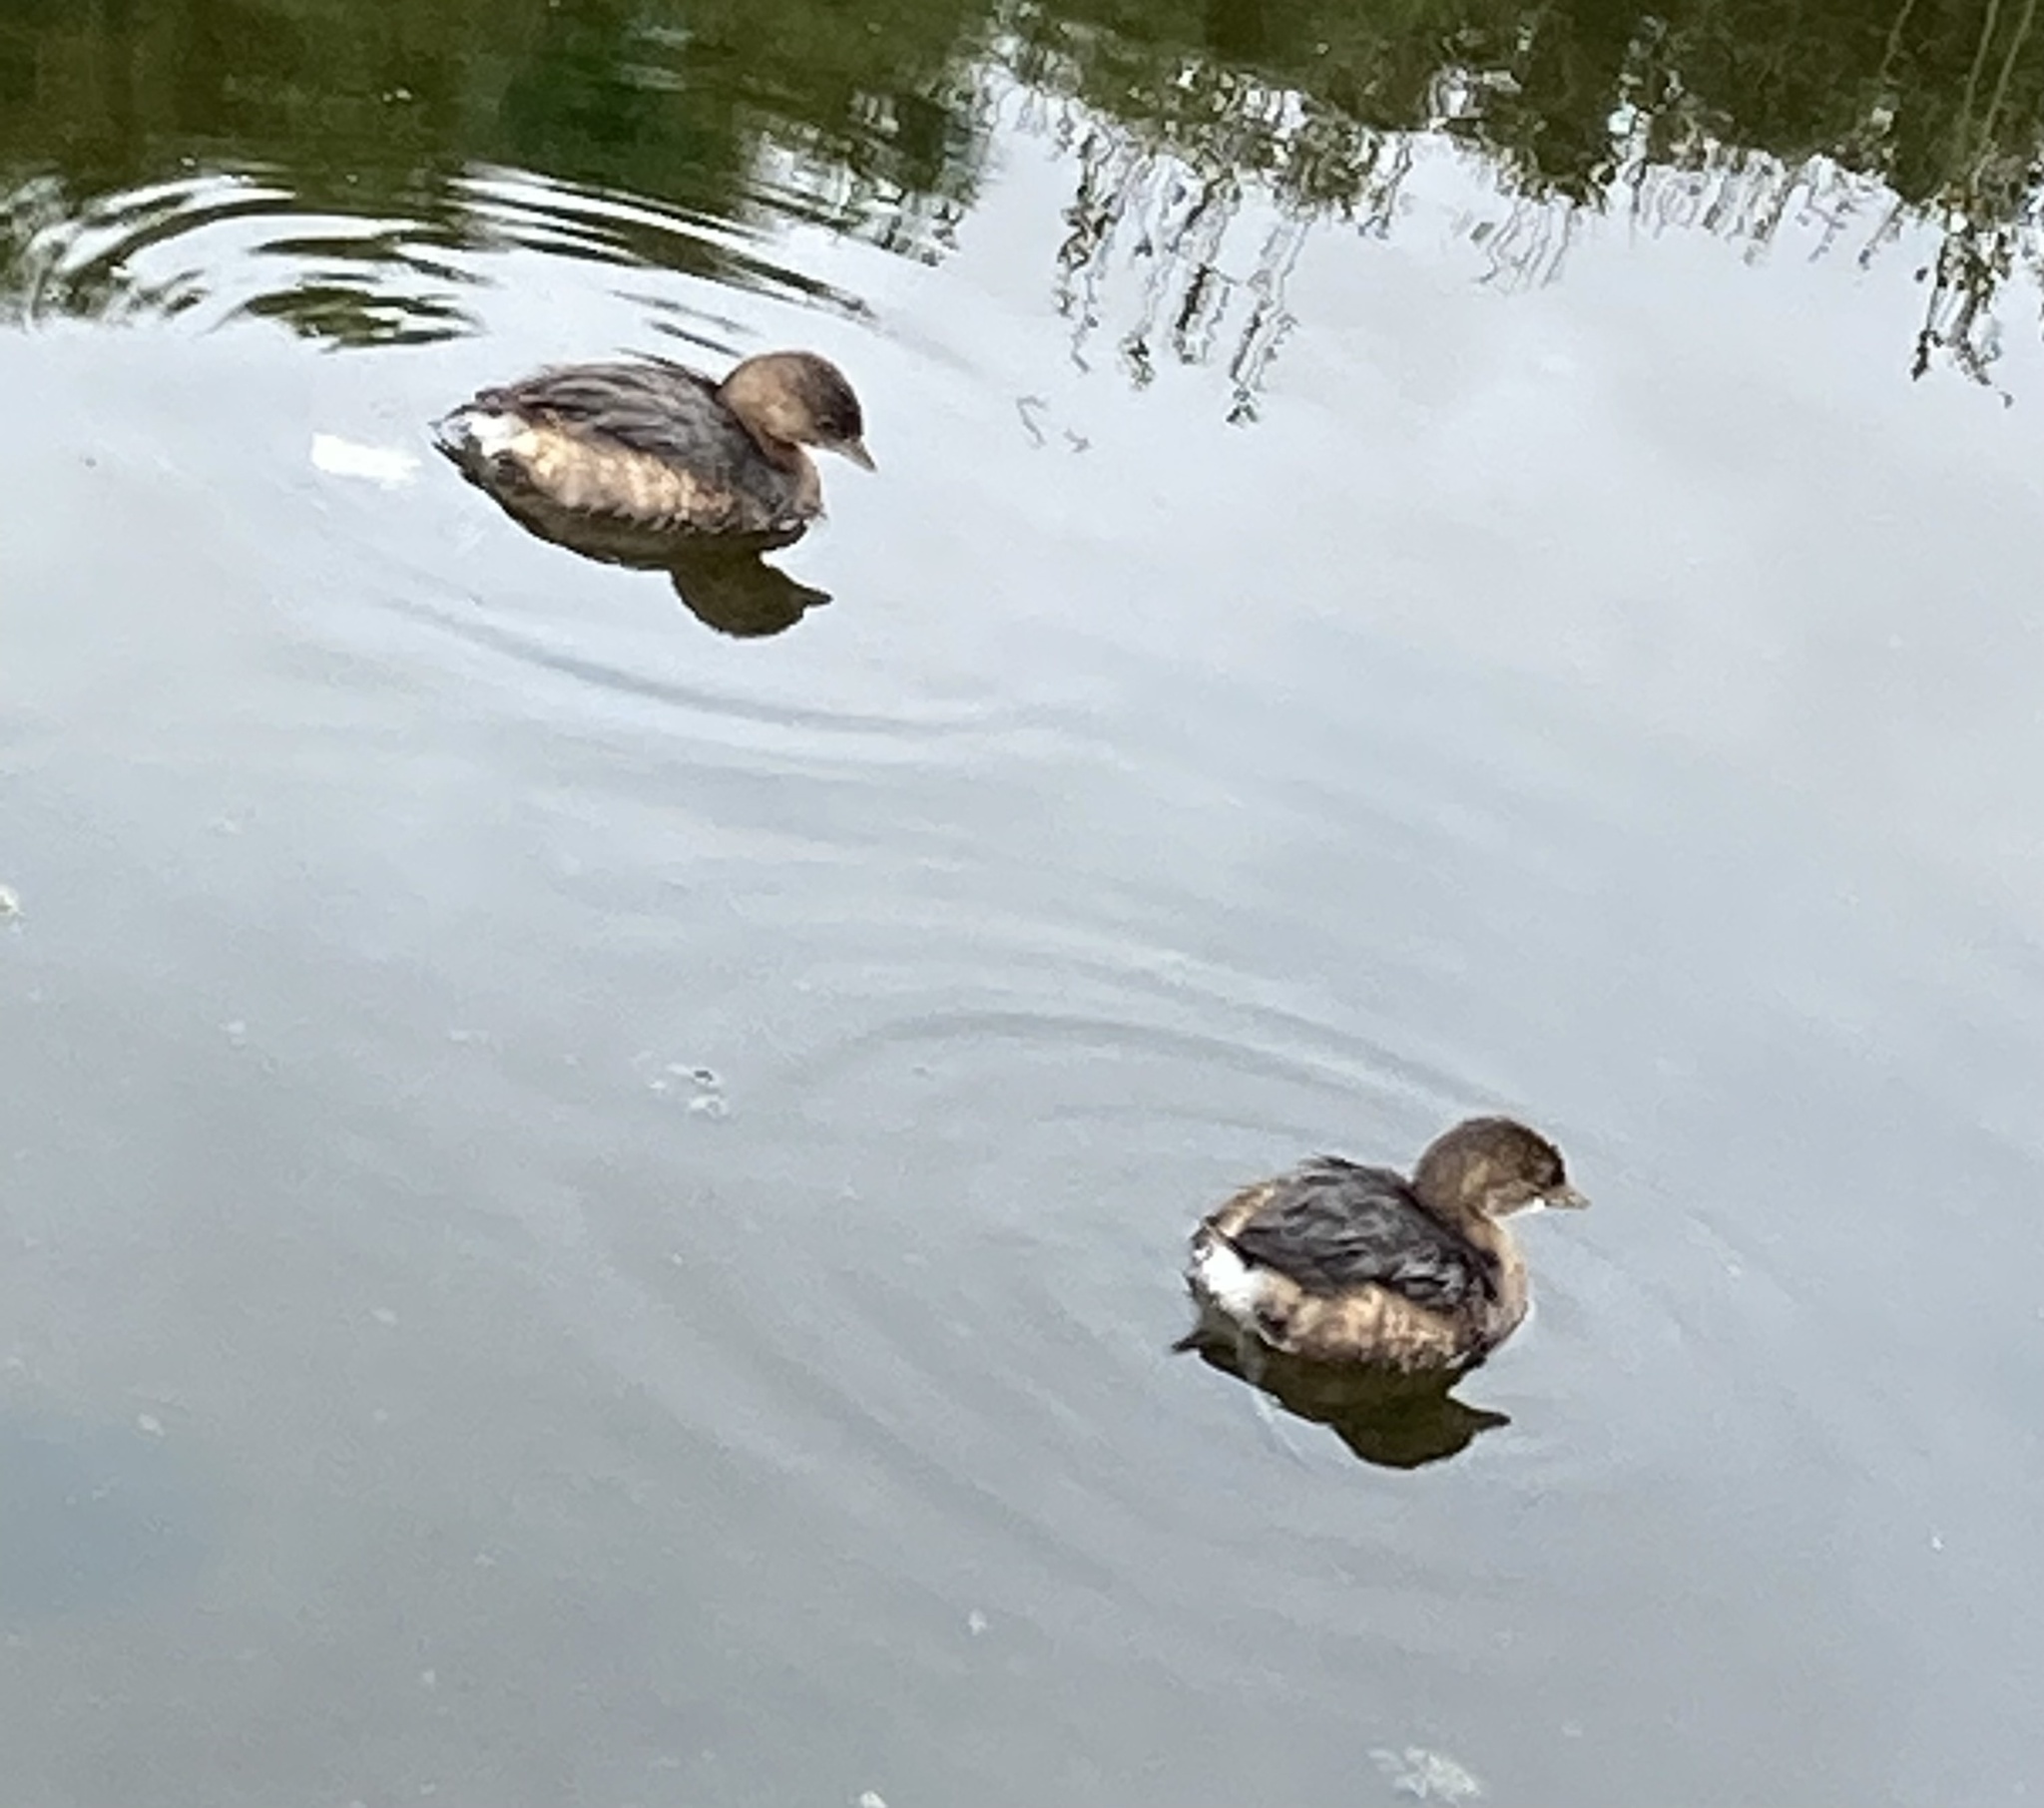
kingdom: Animalia
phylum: Chordata
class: Aves
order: Podicipediformes
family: Podicipedidae
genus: Podilymbus
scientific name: Podilymbus podiceps
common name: Pied-billed grebe
